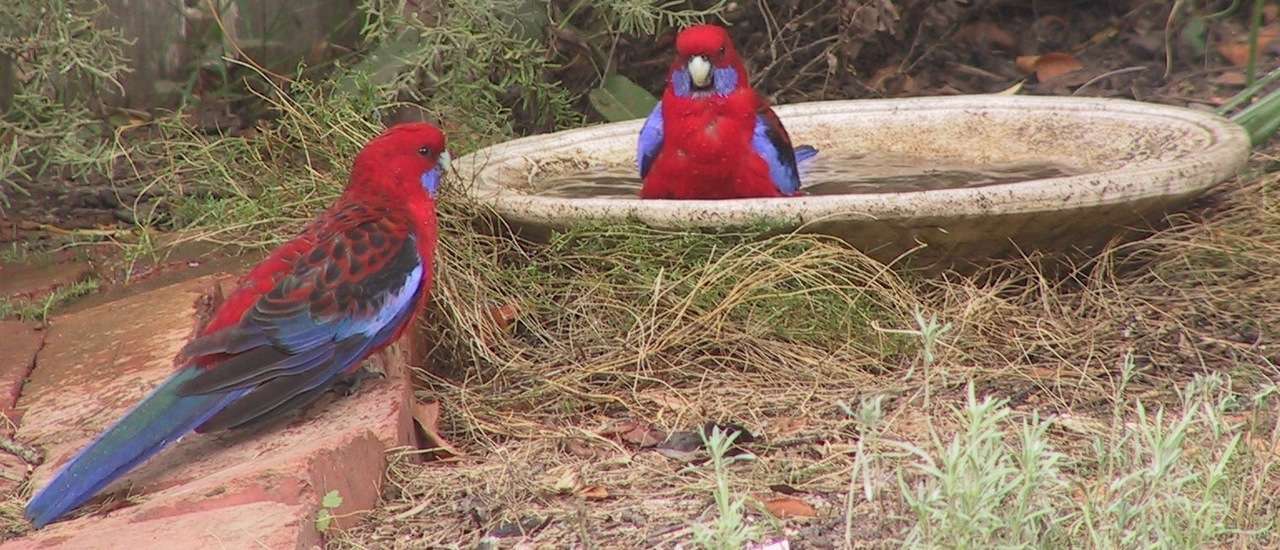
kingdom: Animalia
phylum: Chordata
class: Aves
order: Psittaciformes
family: Psittacidae
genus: Platycercus
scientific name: Platycercus elegans
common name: Crimson rosella
